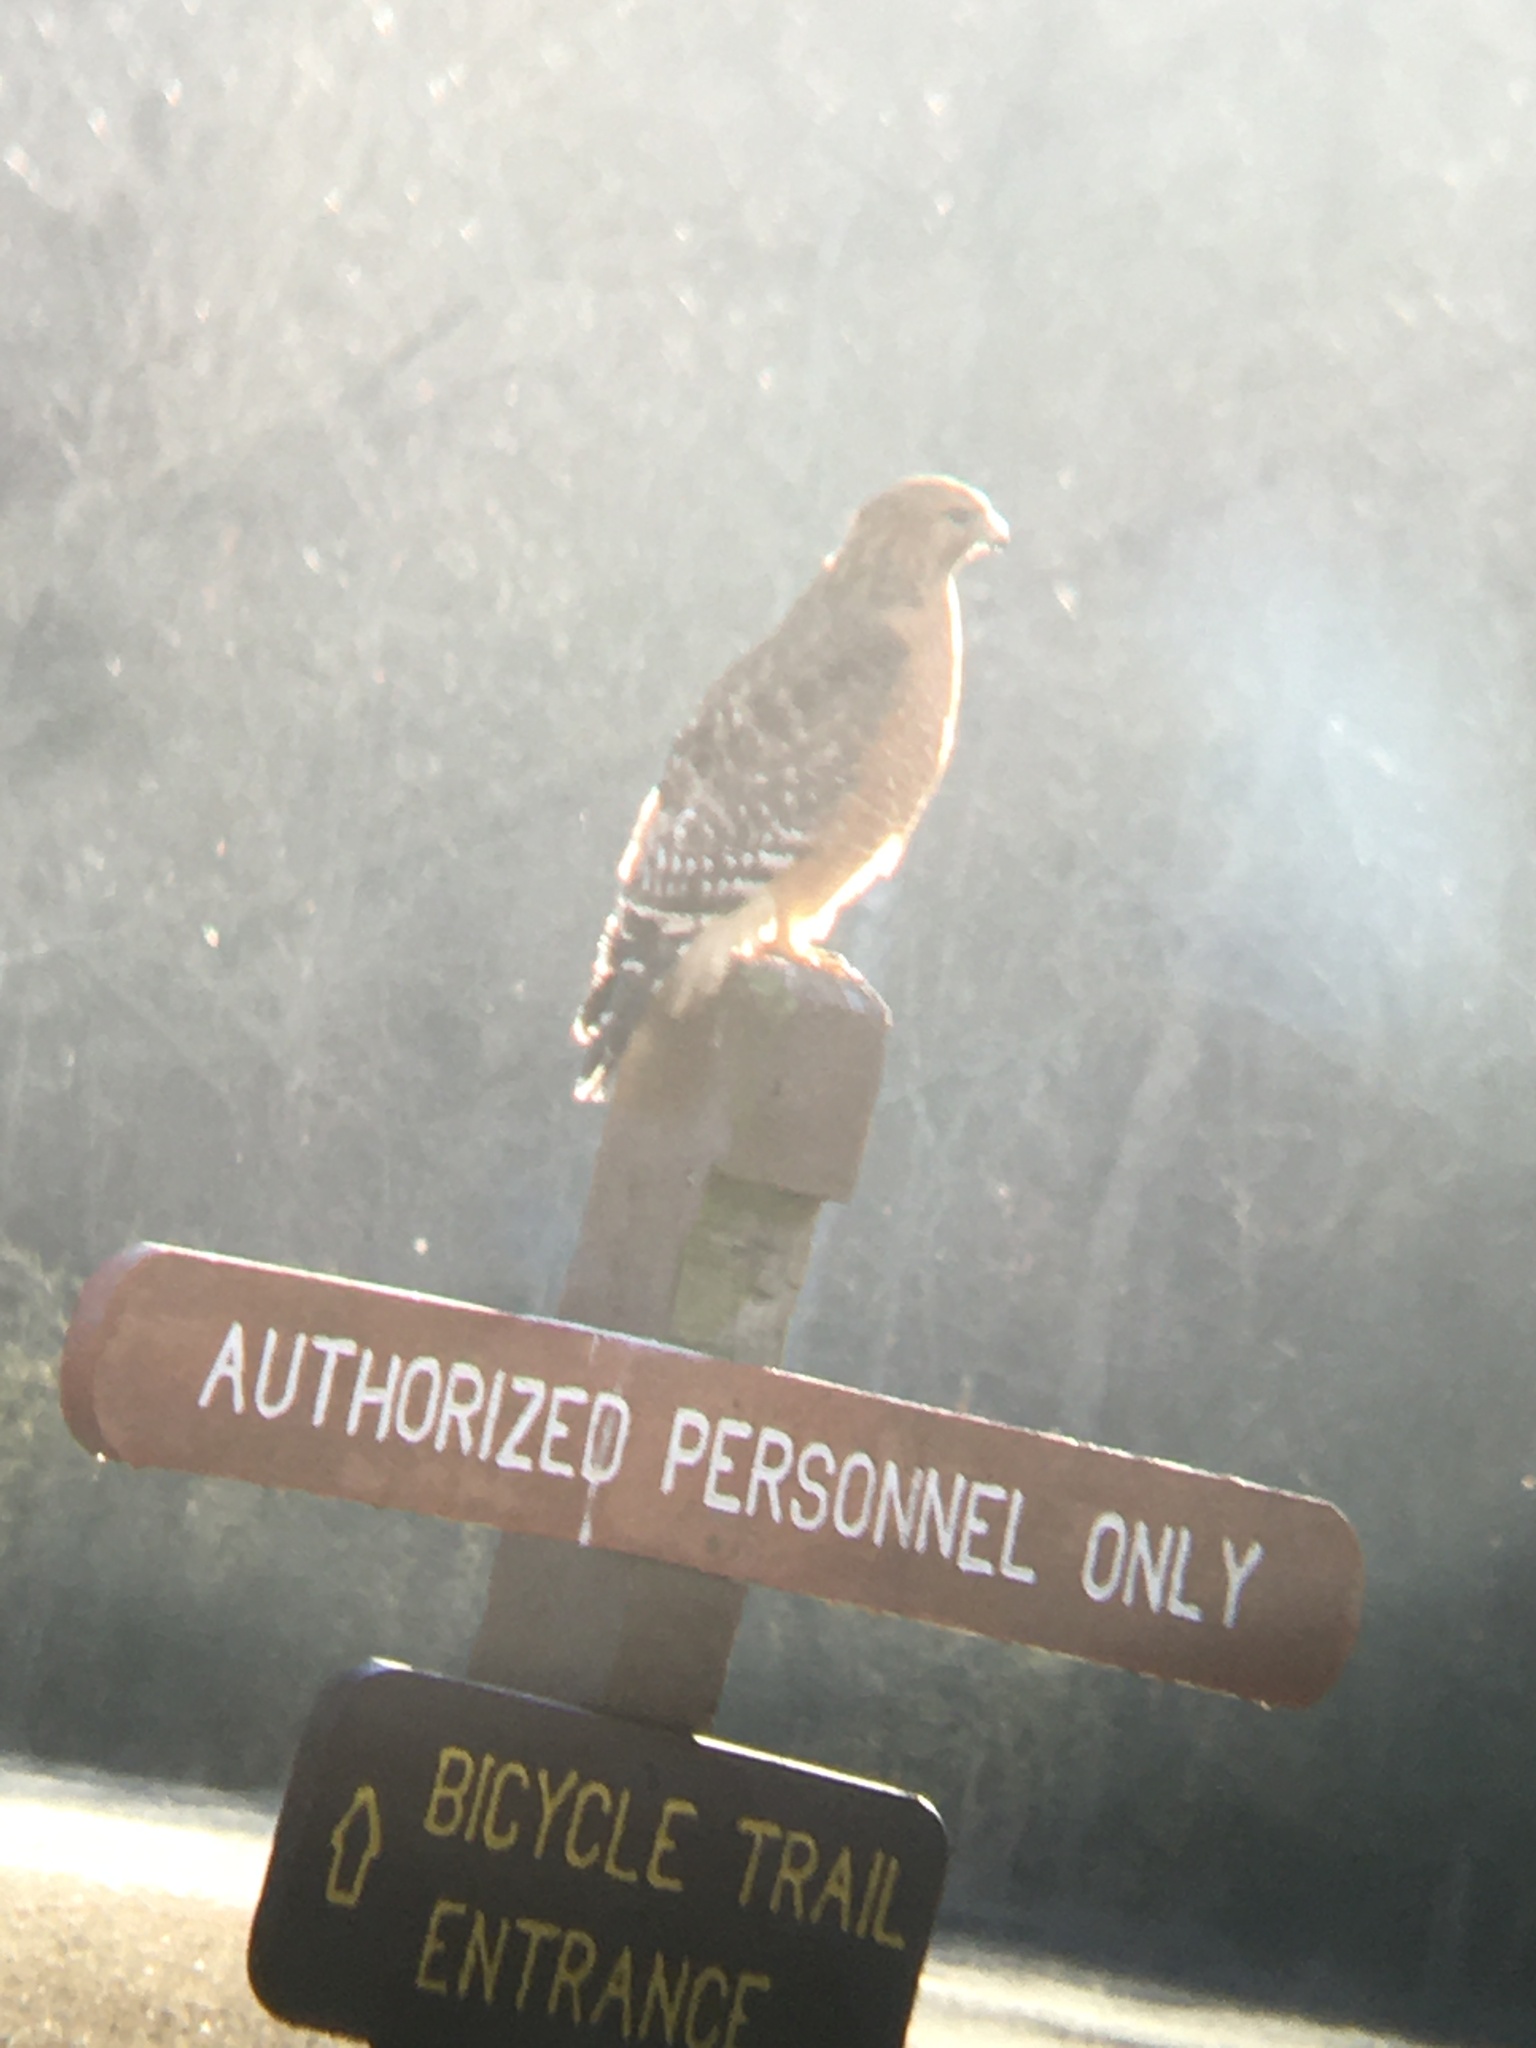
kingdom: Animalia
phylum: Chordata
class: Aves
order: Accipitriformes
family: Accipitridae
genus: Buteo
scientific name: Buteo lineatus
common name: Red-shouldered hawk
